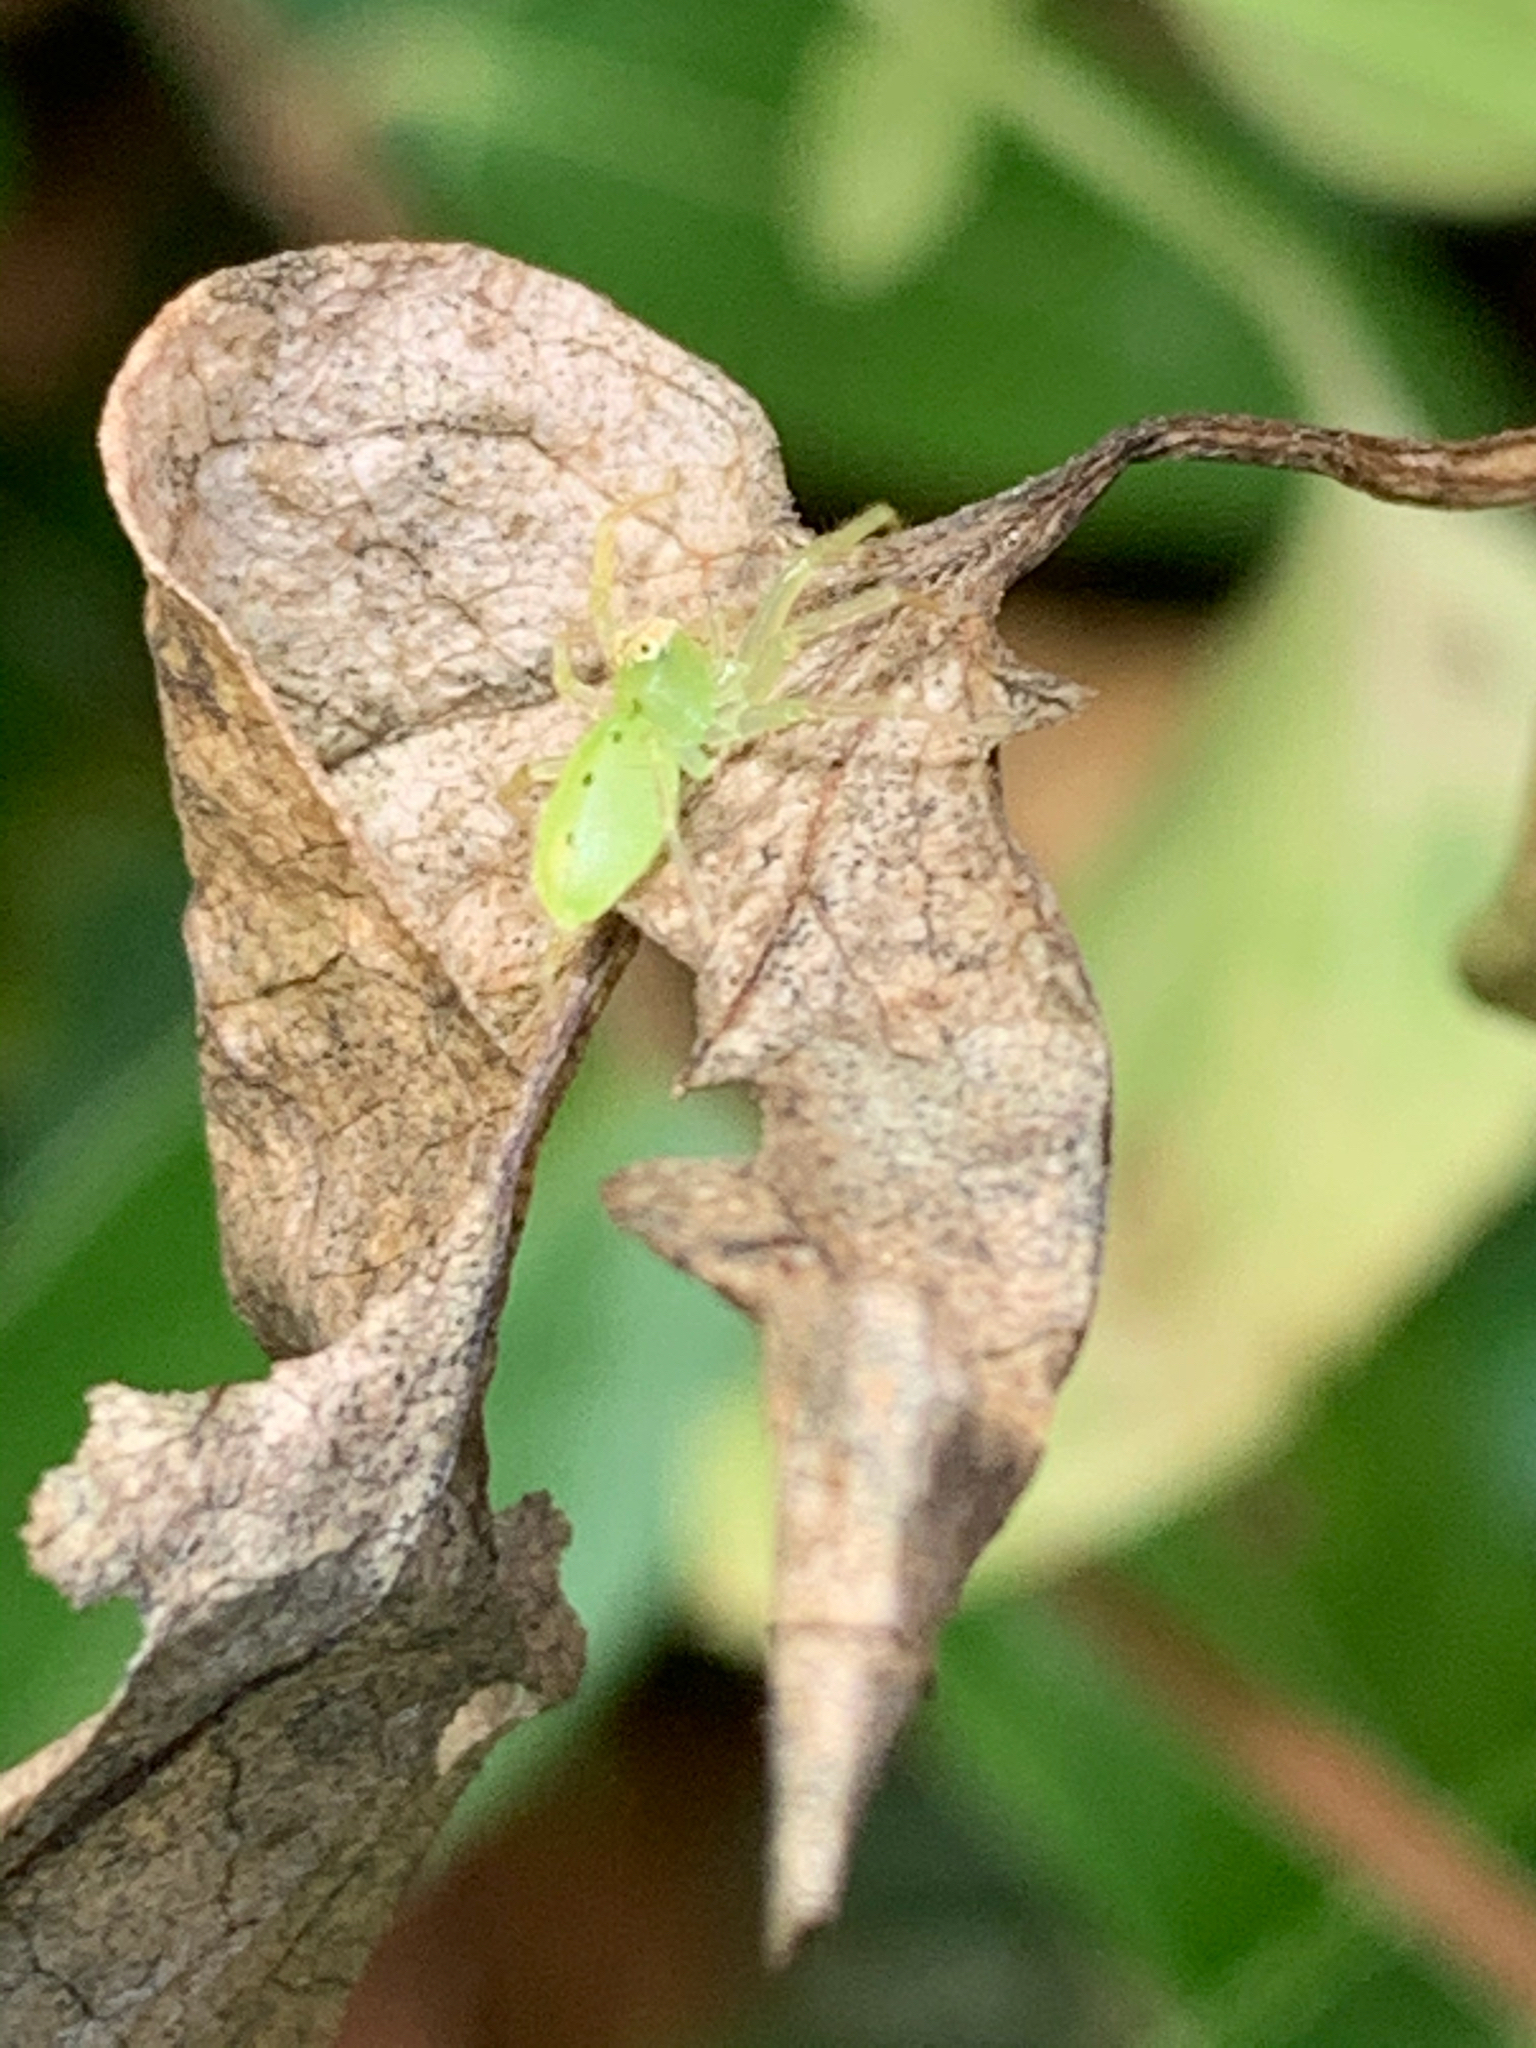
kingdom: Animalia
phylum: Arthropoda
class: Arachnida
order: Araneae
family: Salticidae
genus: Lyssomanes
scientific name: Lyssomanes viridis
